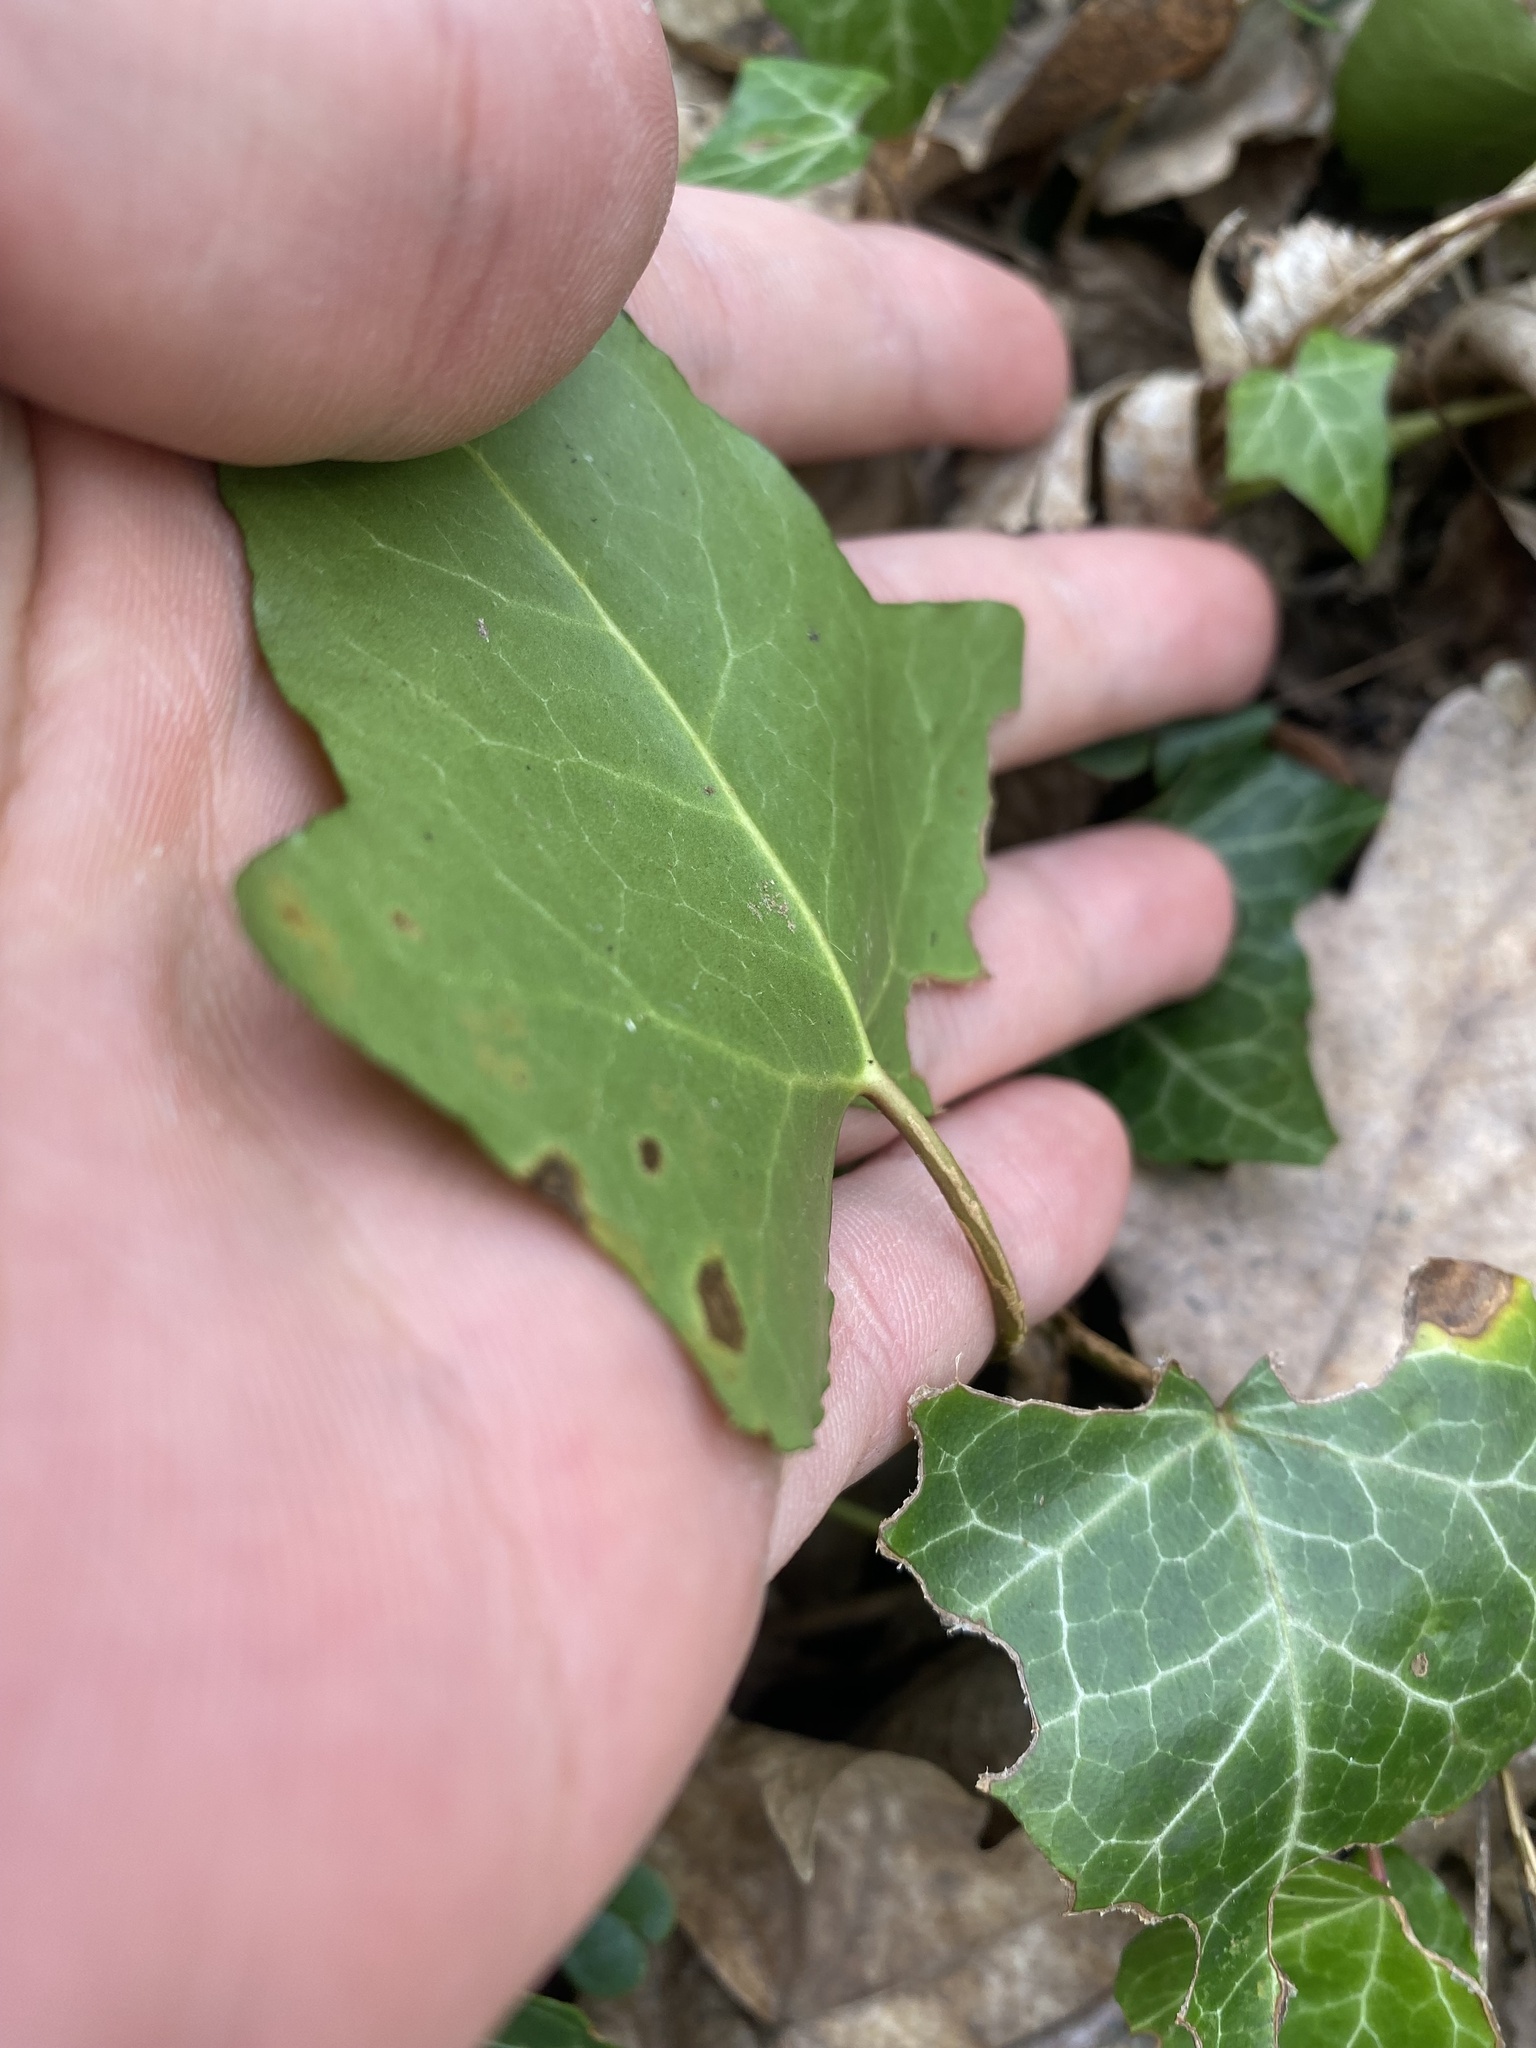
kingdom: Plantae
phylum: Tracheophyta
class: Magnoliopsida
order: Apiales
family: Araliaceae
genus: Hedera
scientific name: Hedera helix
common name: Ivy
